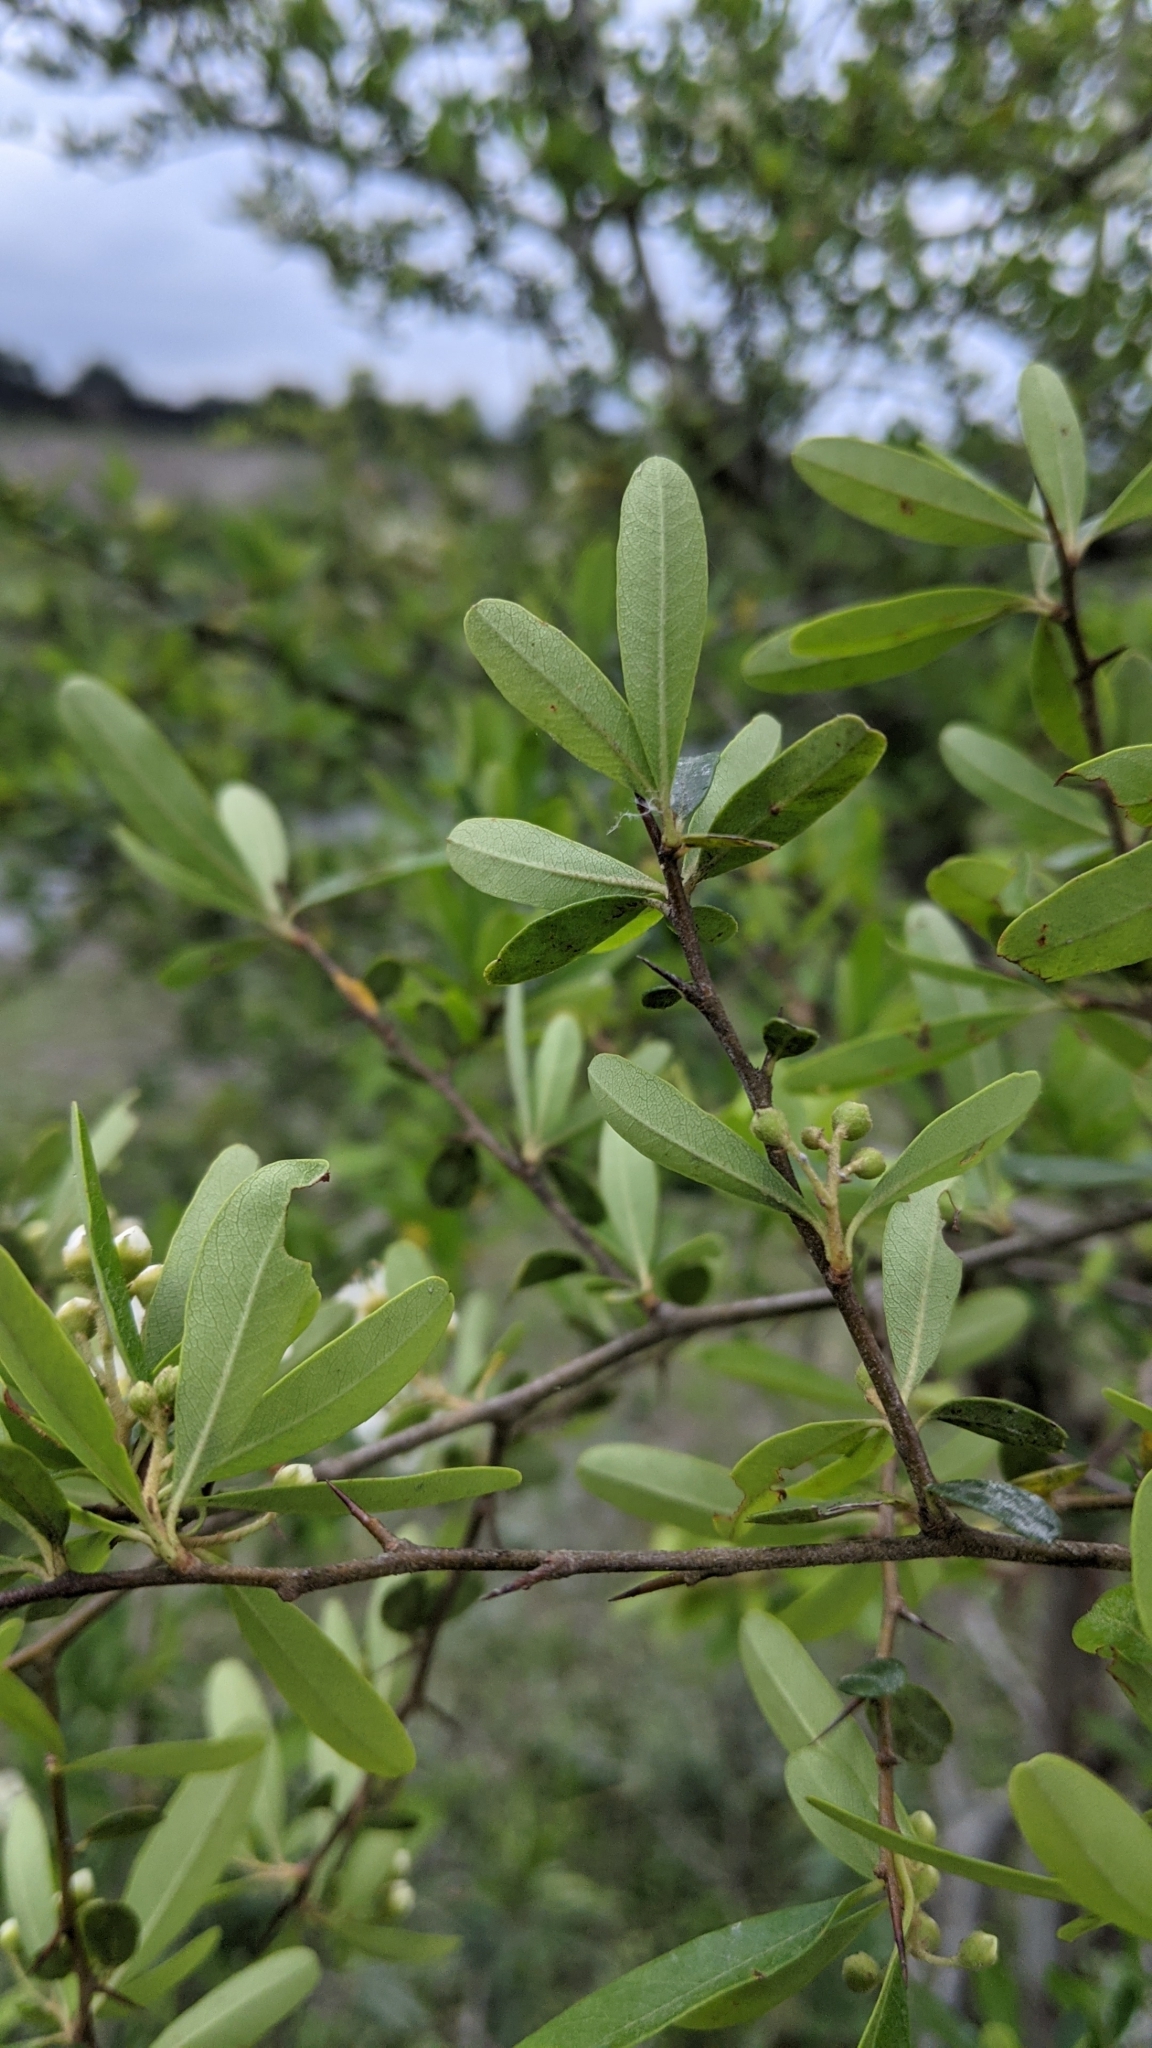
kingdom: Plantae
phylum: Tracheophyta
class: Magnoliopsida
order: Rosales
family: Rosaceae
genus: Pyracantha
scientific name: Pyracantha koidzumii
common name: Formosa firethorn
